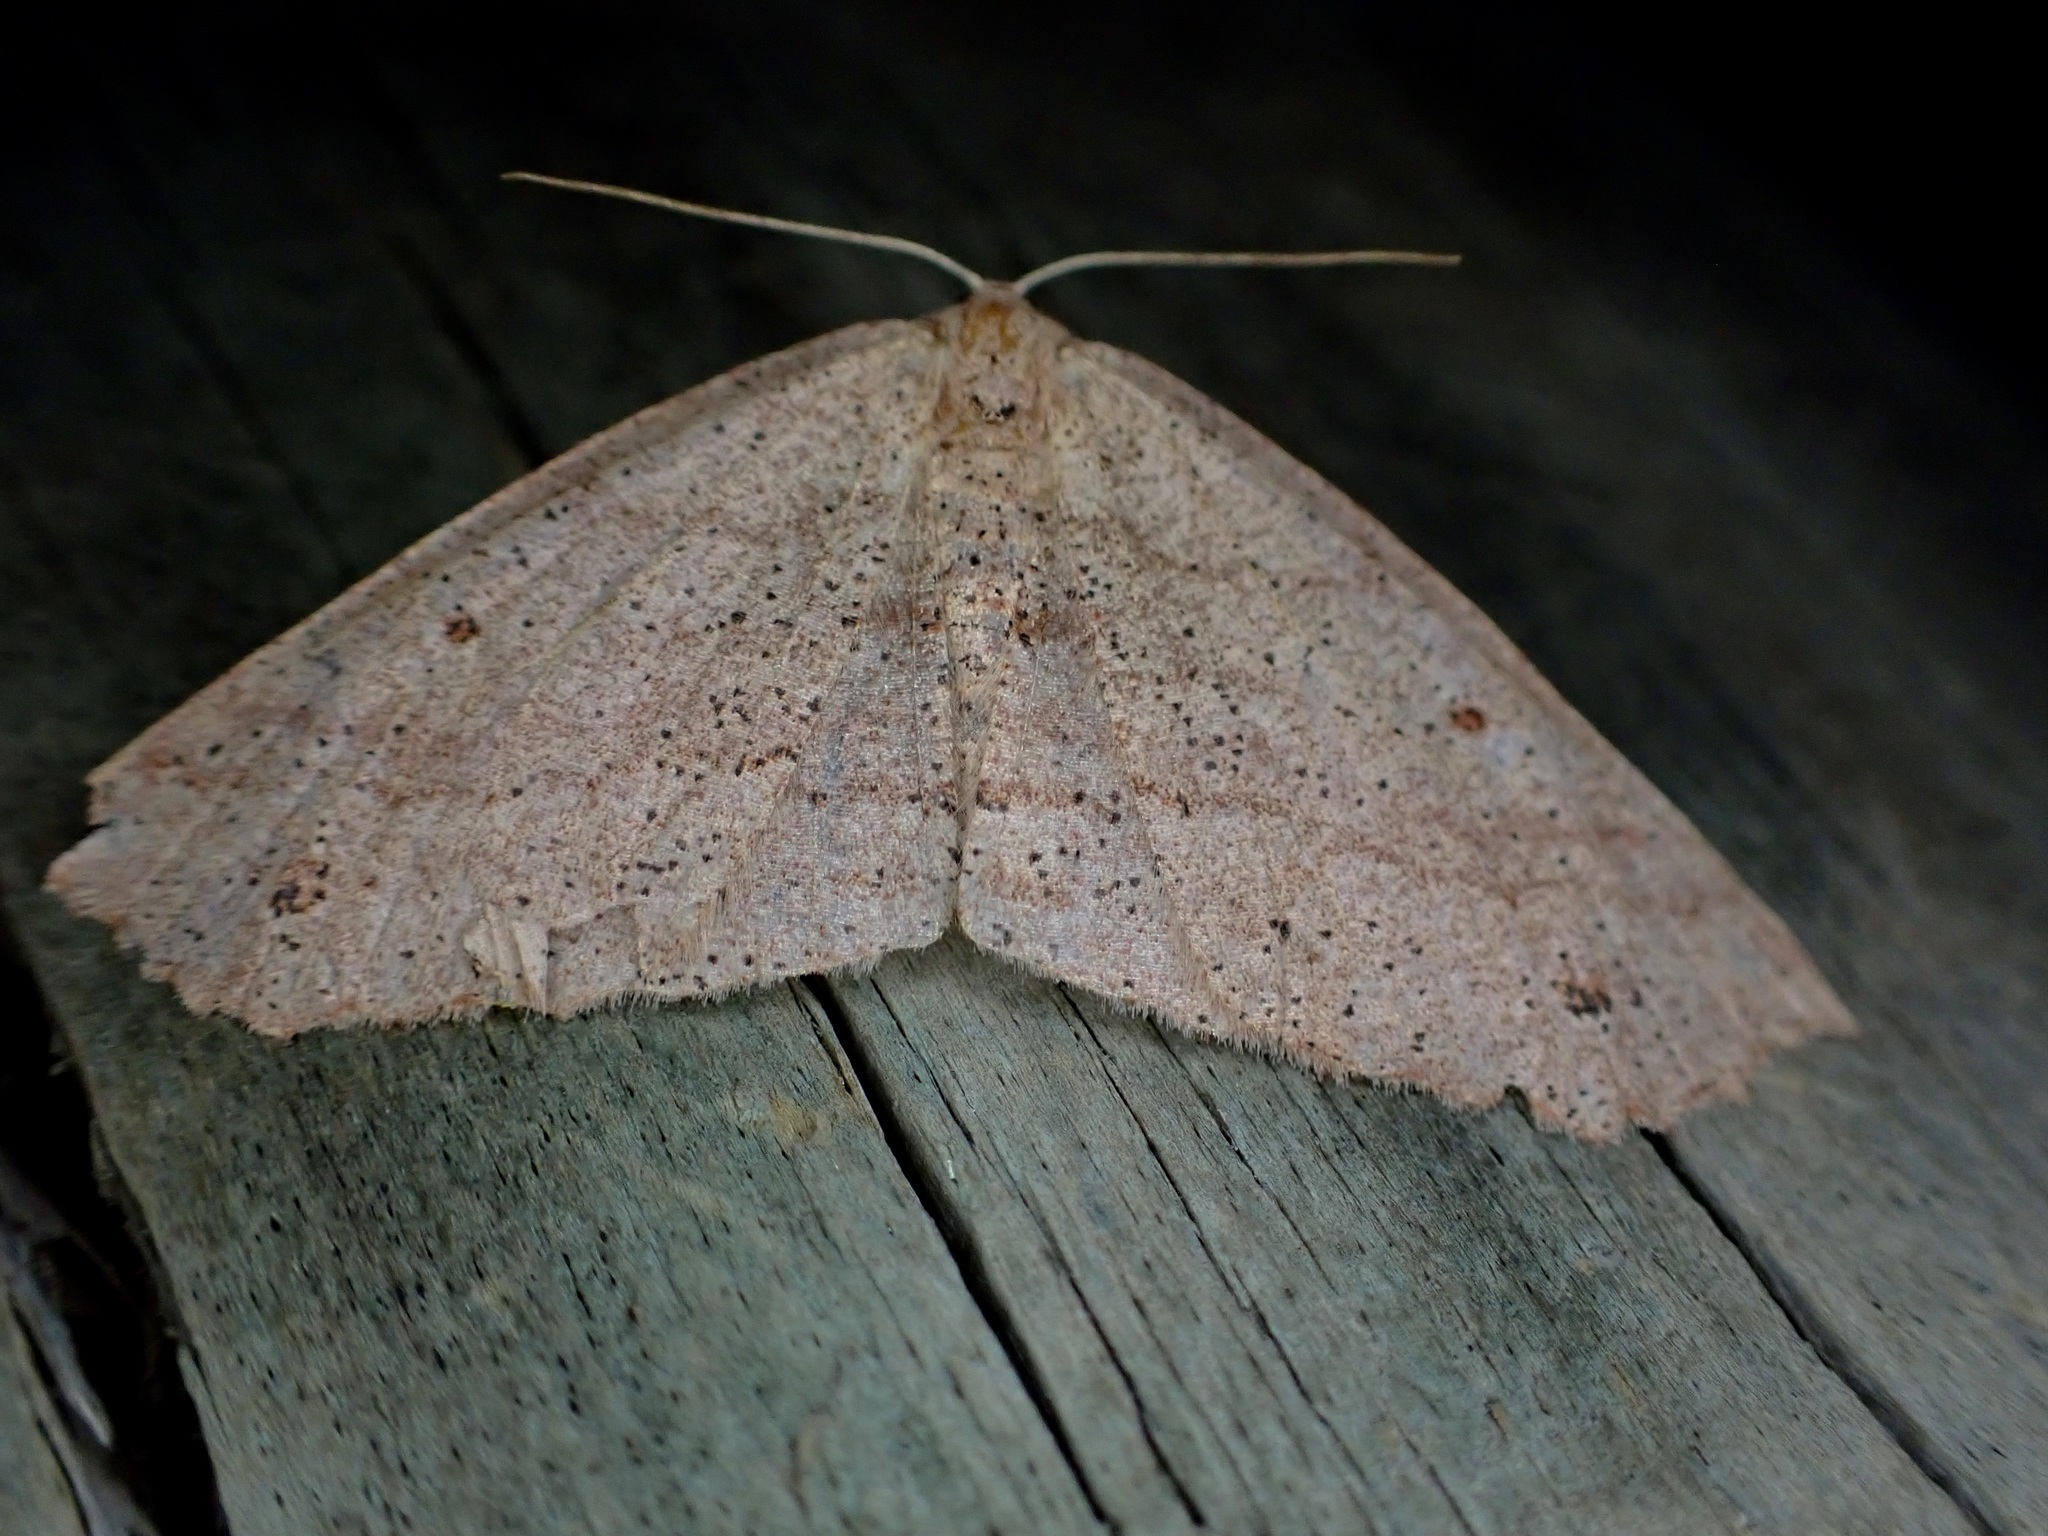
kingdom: Animalia
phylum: Arthropoda
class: Insecta
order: Lepidoptera
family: Geometridae
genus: Xyridacma
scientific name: Xyridacma veronicae
